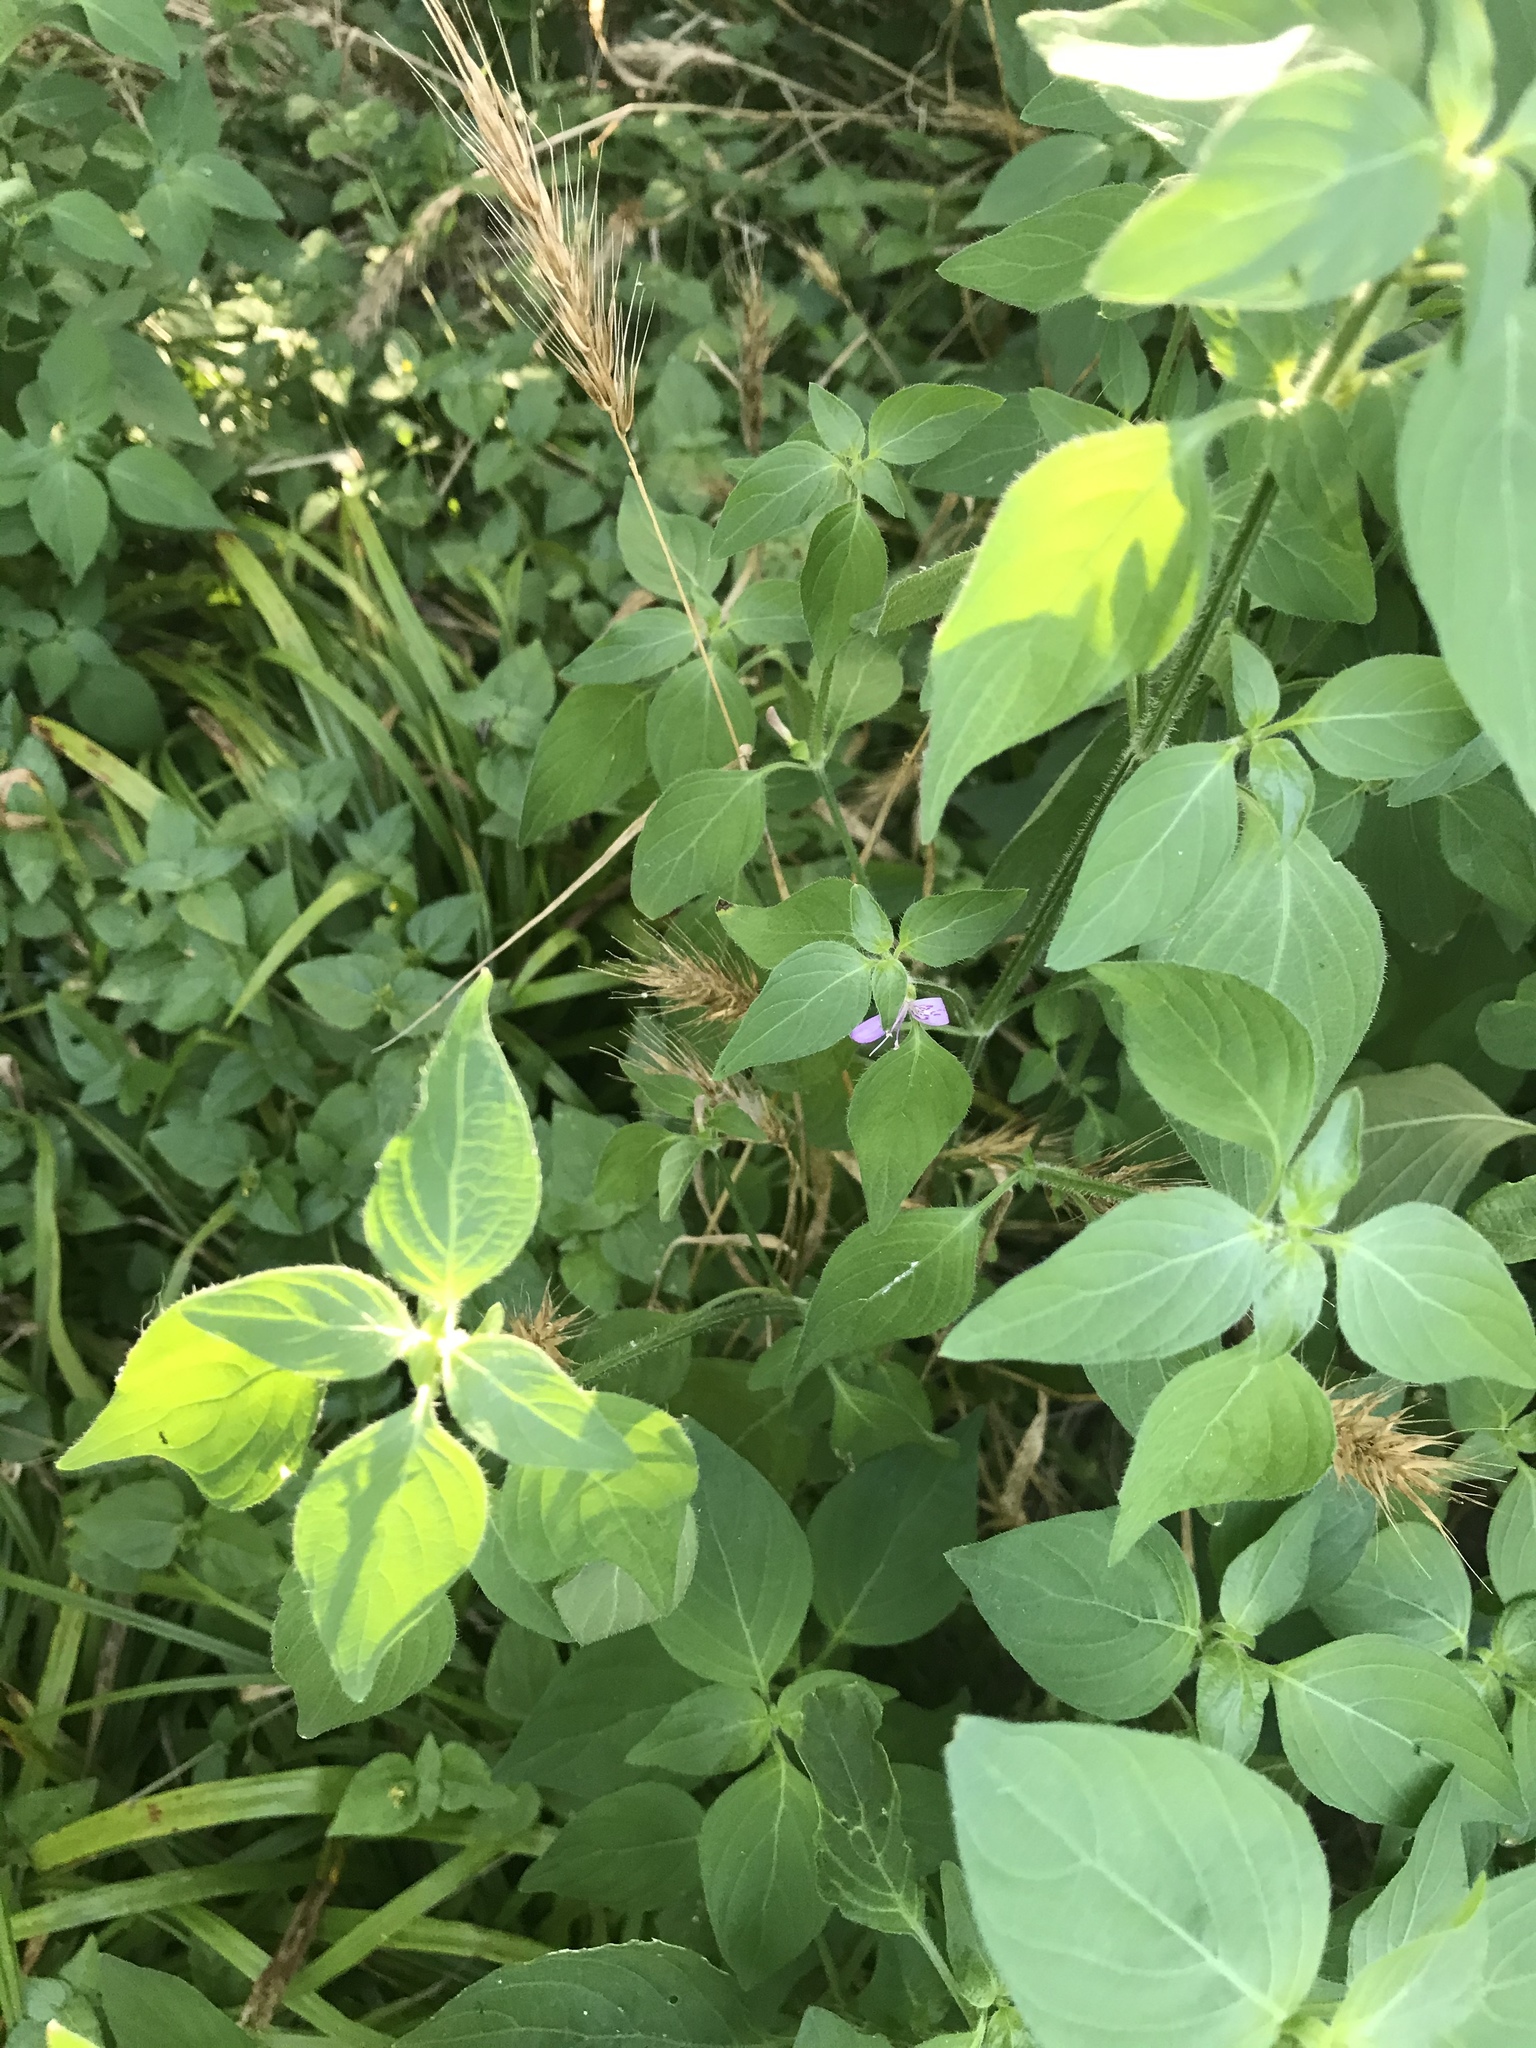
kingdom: Plantae
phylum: Tracheophyta
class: Magnoliopsida
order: Lamiales
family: Acanthaceae
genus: Dicliptera
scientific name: Dicliptera brachiata
